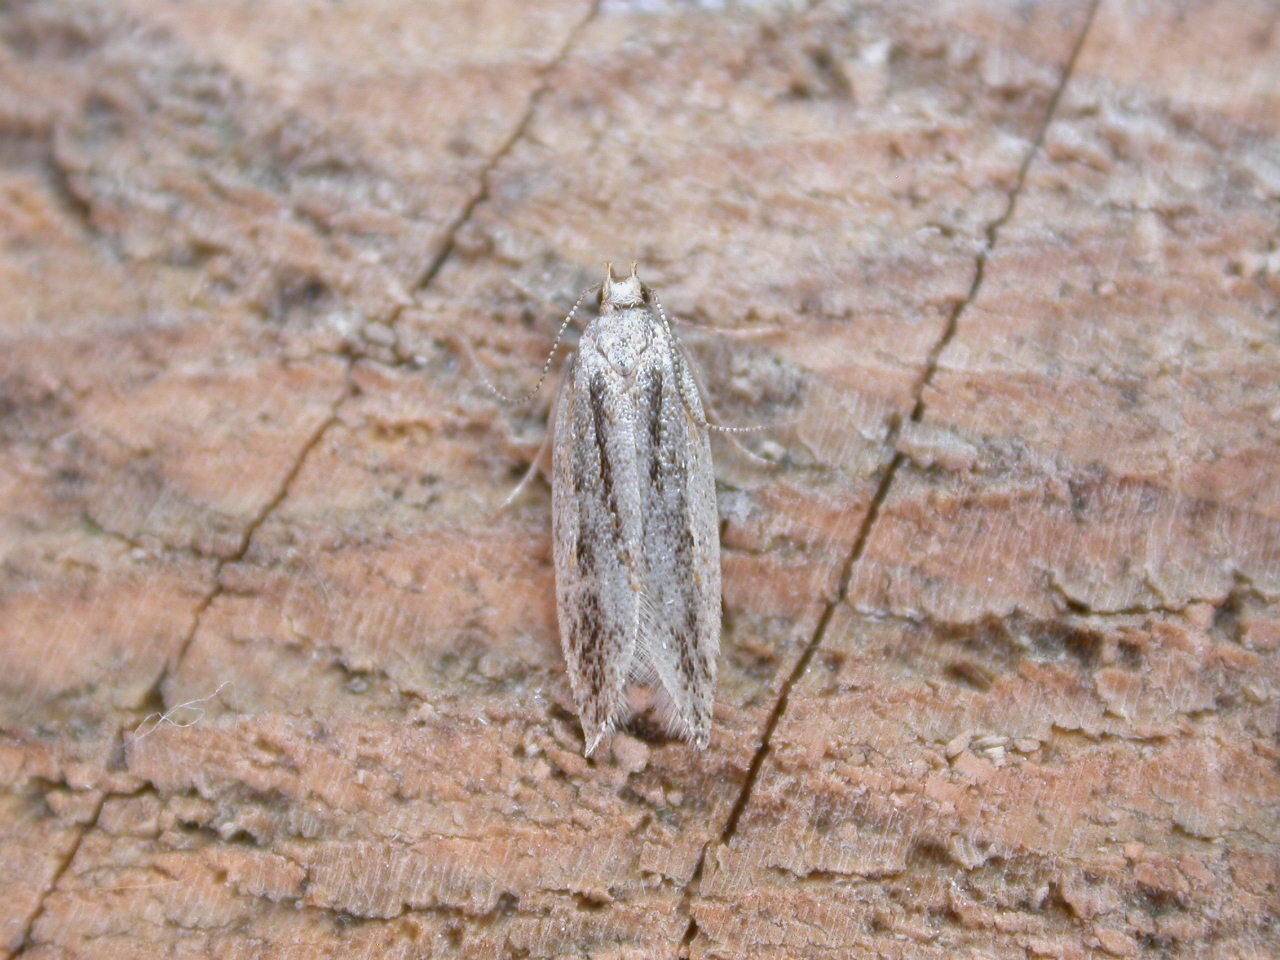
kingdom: Animalia
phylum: Arthropoda
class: Insecta
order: Lepidoptera
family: Gelechiidae
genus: Anarsia
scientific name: Anarsia innoxiella
